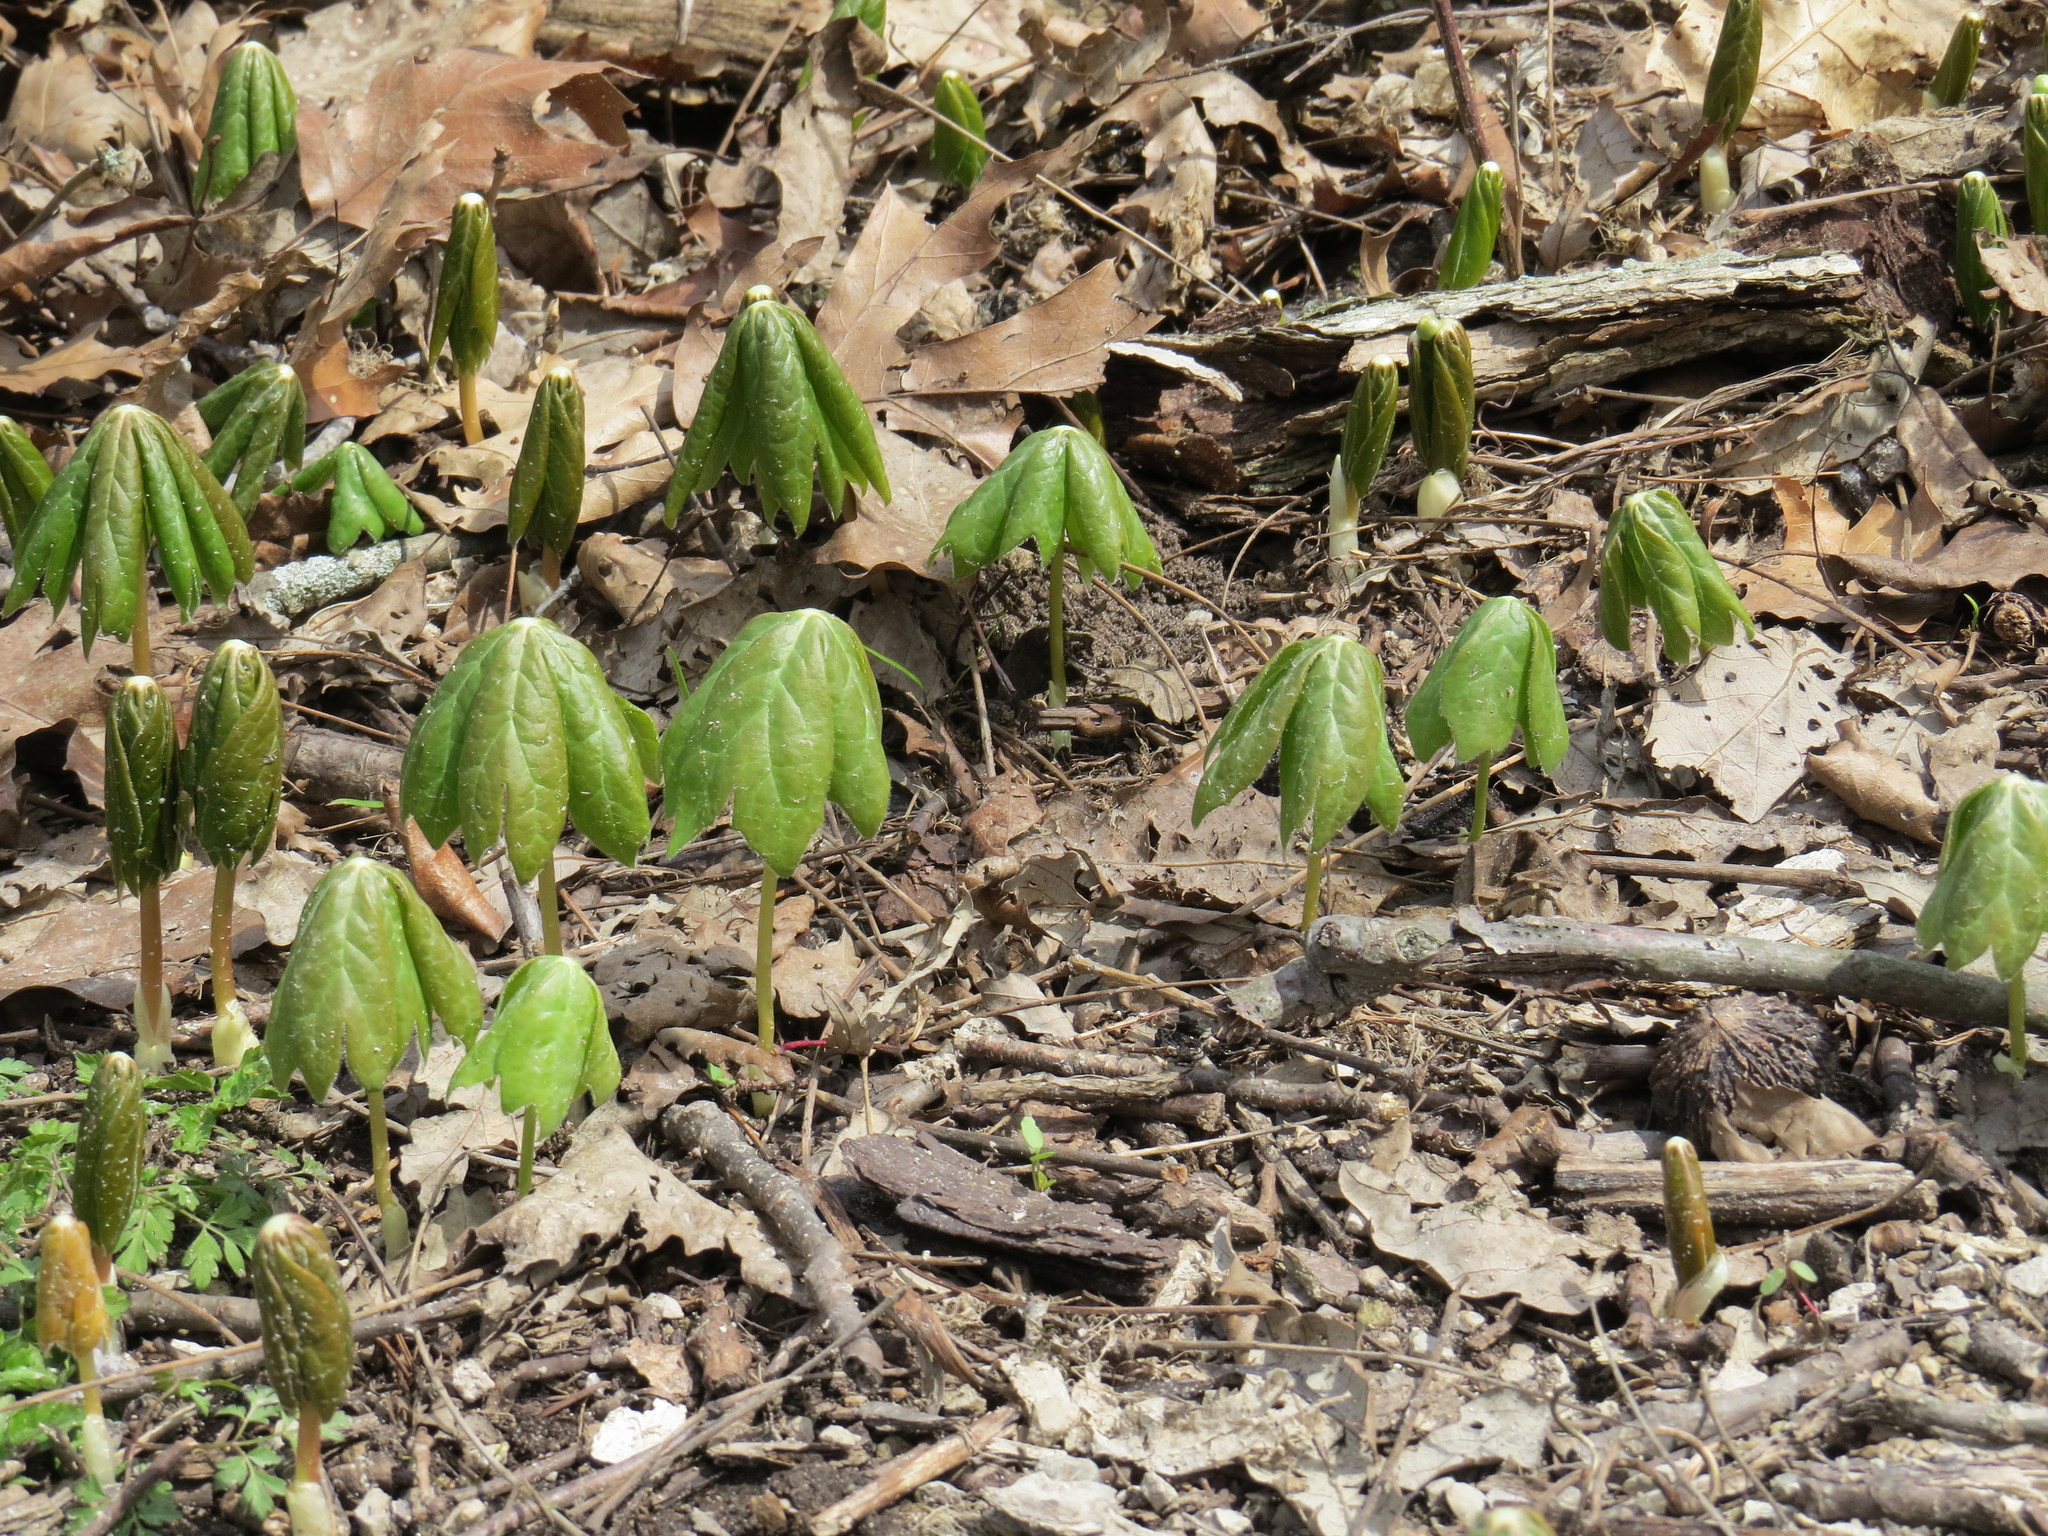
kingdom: Plantae
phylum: Tracheophyta
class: Magnoliopsida
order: Ranunculales
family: Berberidaceae
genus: Podophyllum
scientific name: Podophyllum peltatum
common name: Wild mandrake
